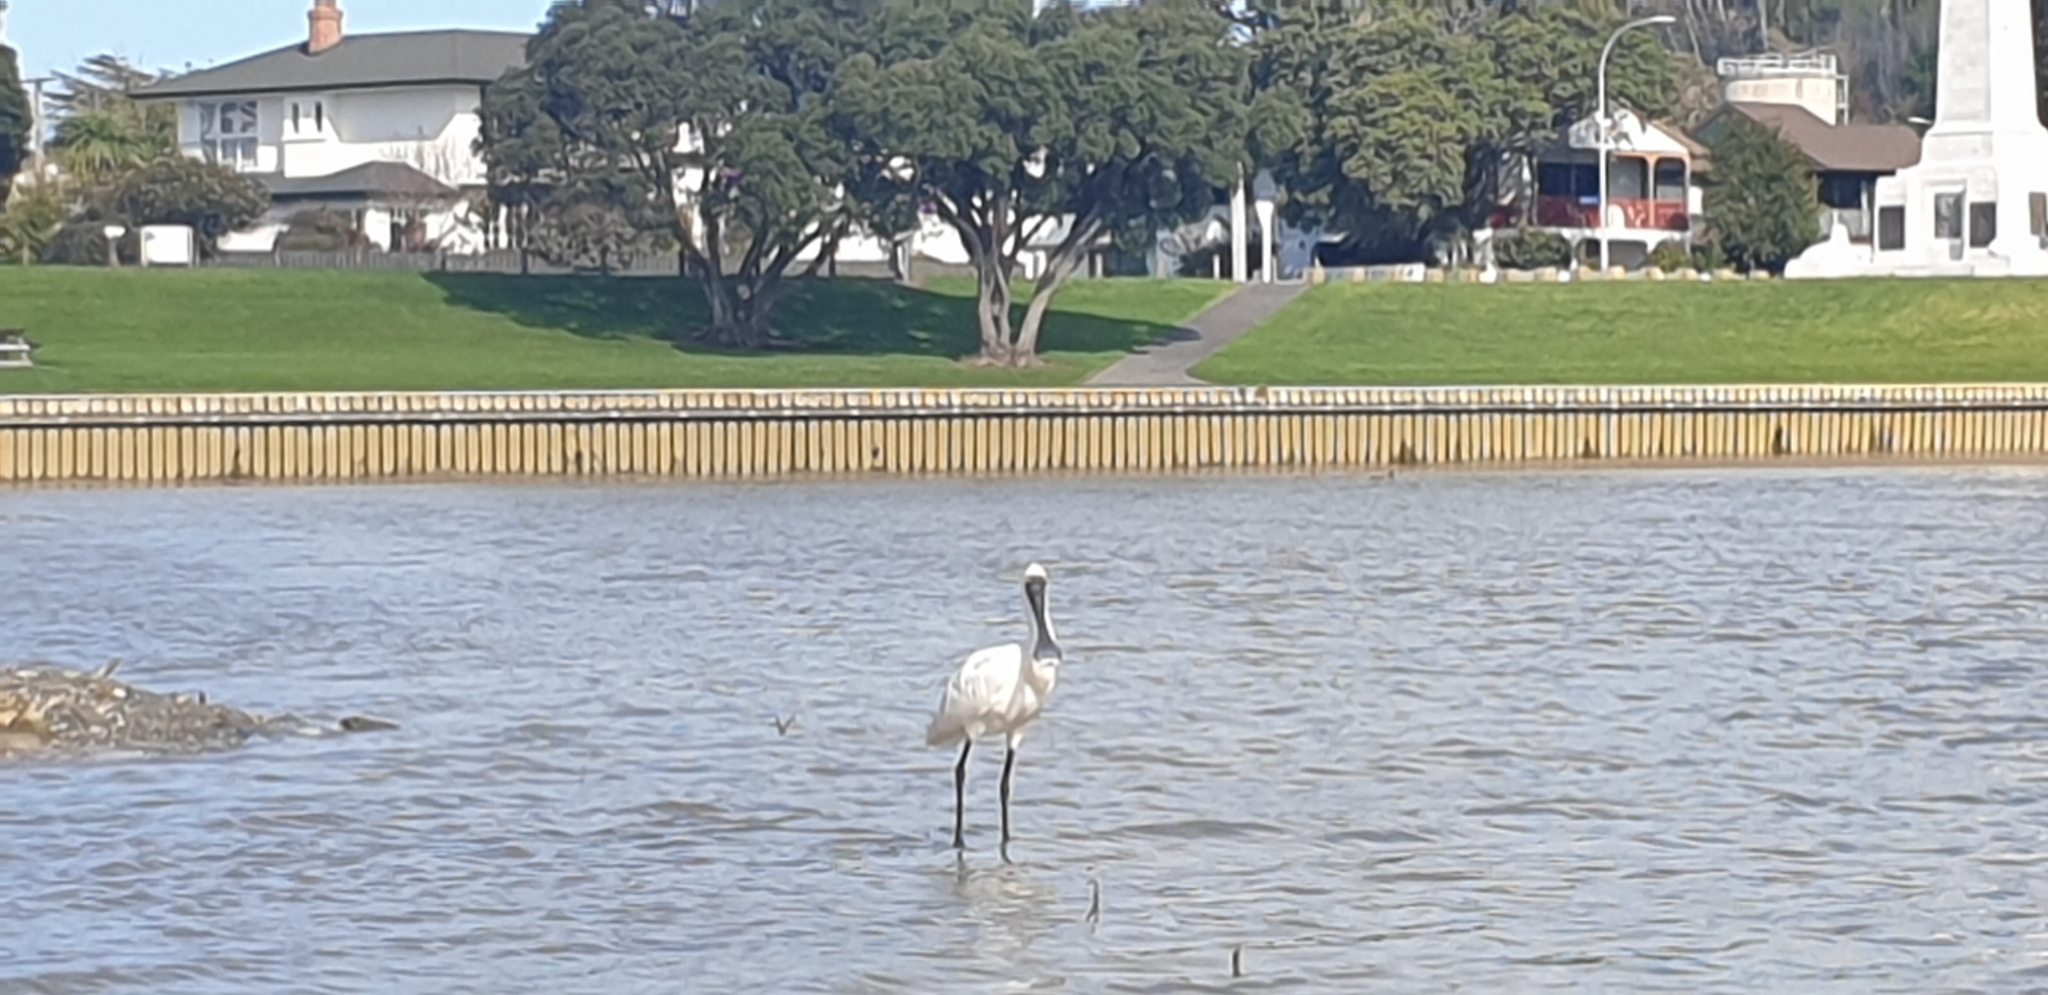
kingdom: Animalia
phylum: Chordata
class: Aves
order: Pelecaniformes
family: Threskiornithidae
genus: Platalea
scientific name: Platalea regia
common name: Royal spoonbill
